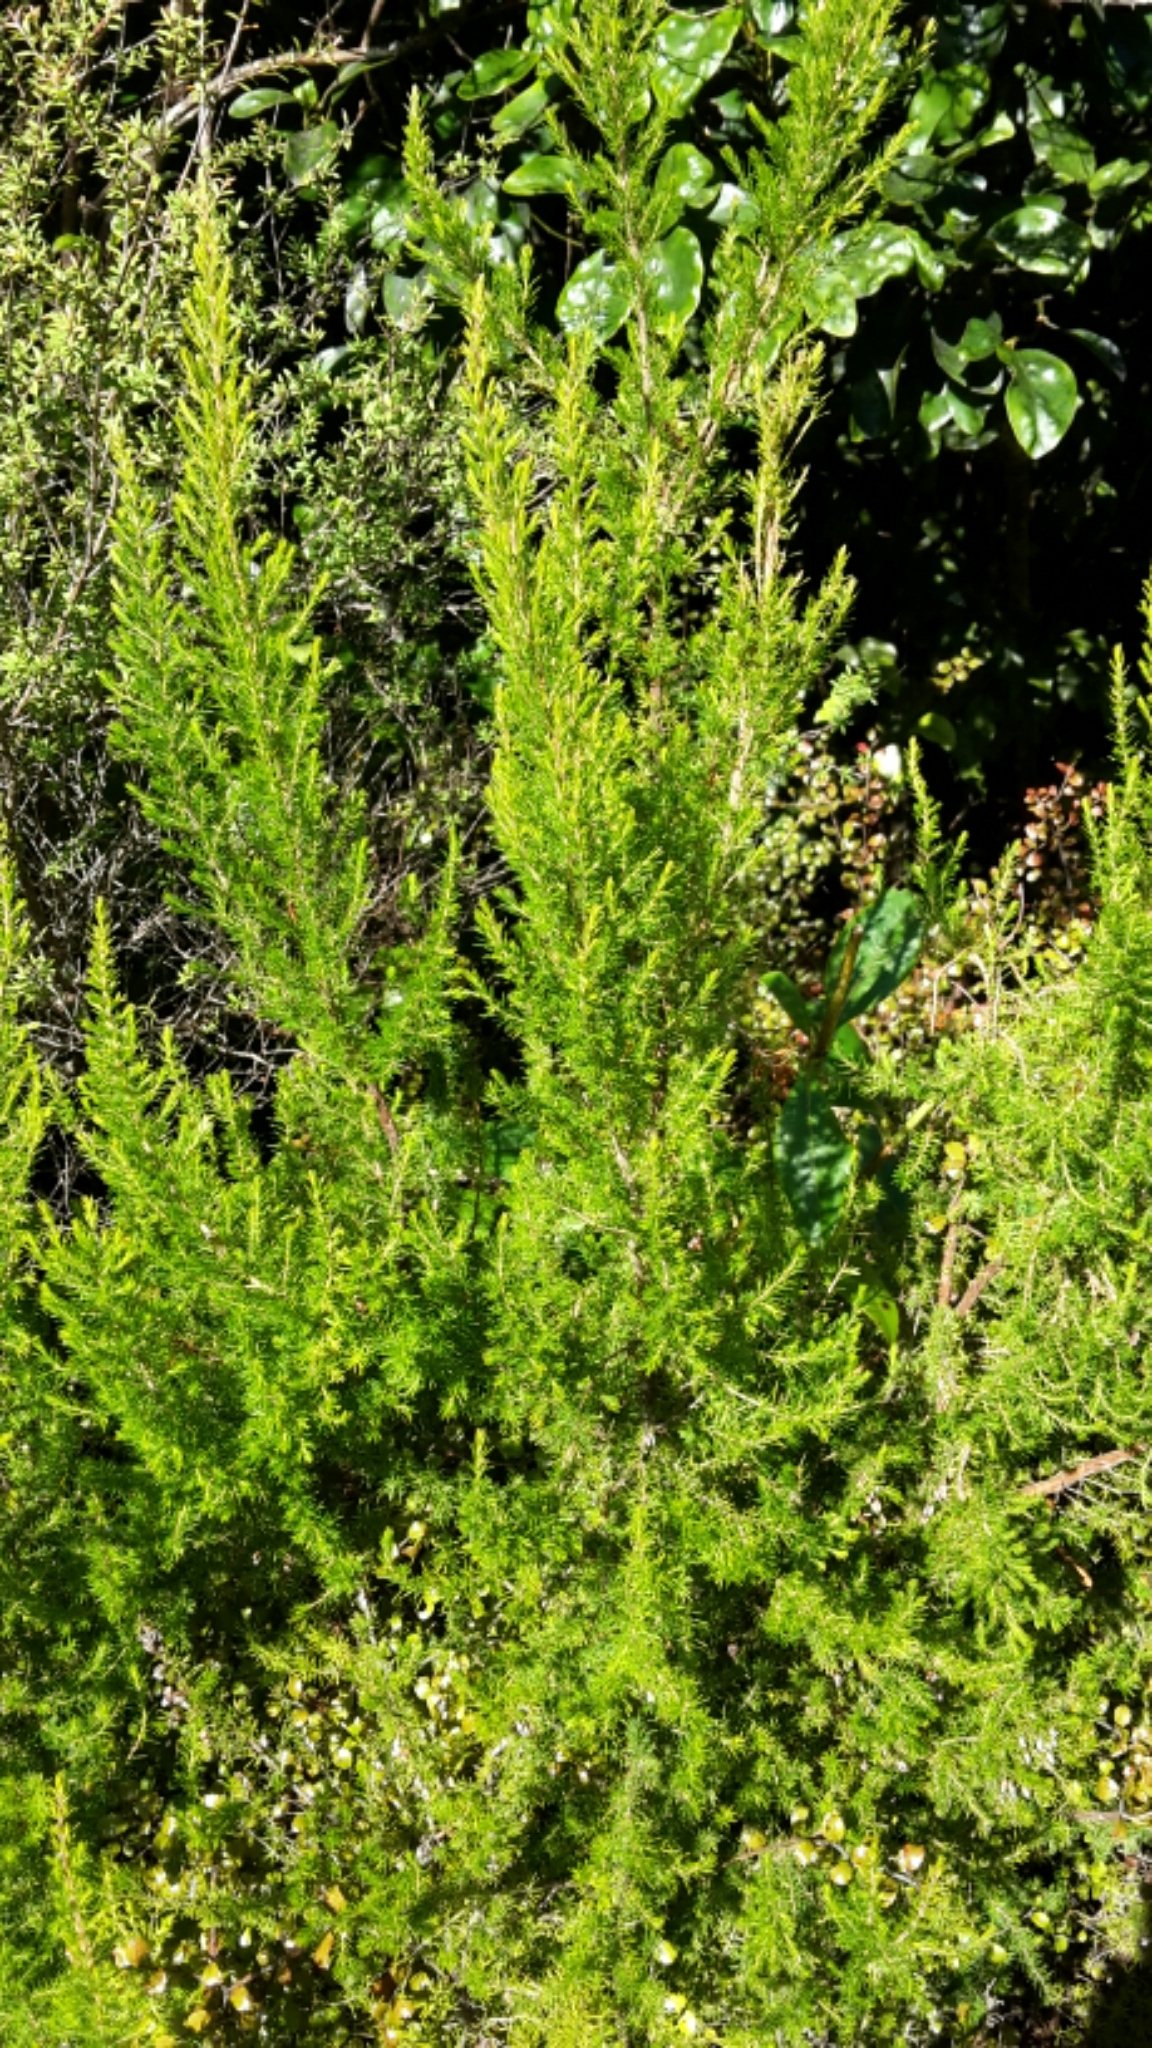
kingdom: Plantae
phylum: Tracheophyta
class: Magnoliopsida
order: Ericales
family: Ericaceae
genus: Erica
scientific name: Erica arborea
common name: Tree heath
